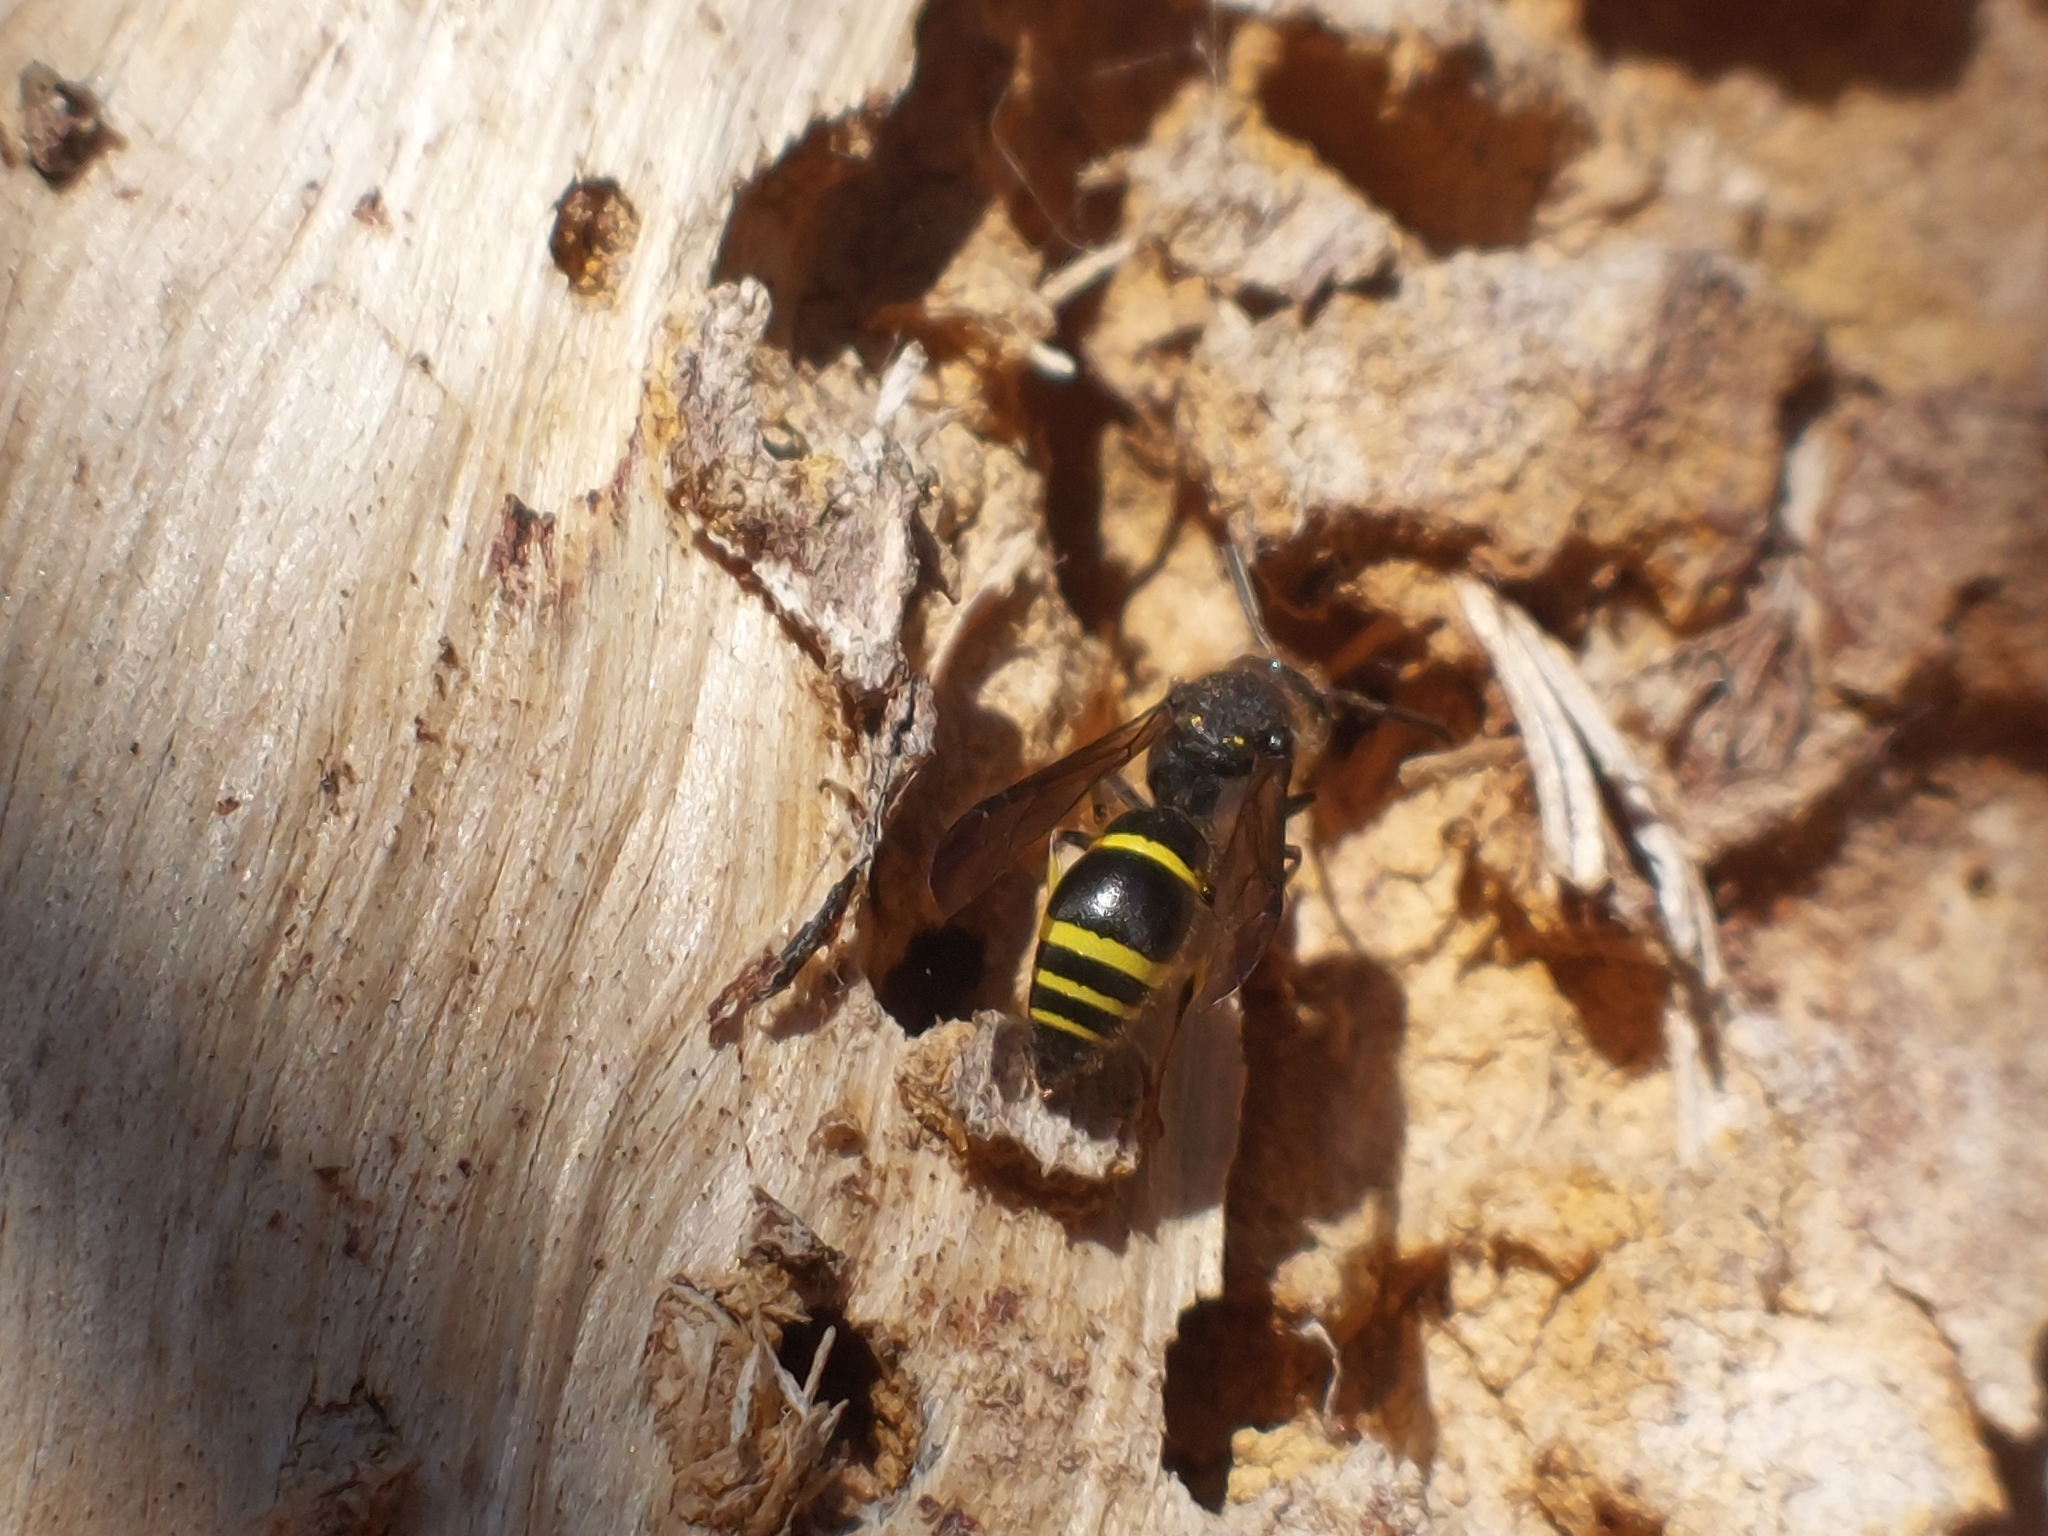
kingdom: Animalia
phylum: Arthropoda
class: Insecta
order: Hymenoptera
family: Vespidae
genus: Ancistrocerus
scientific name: Ancistrocerus nigricornis
